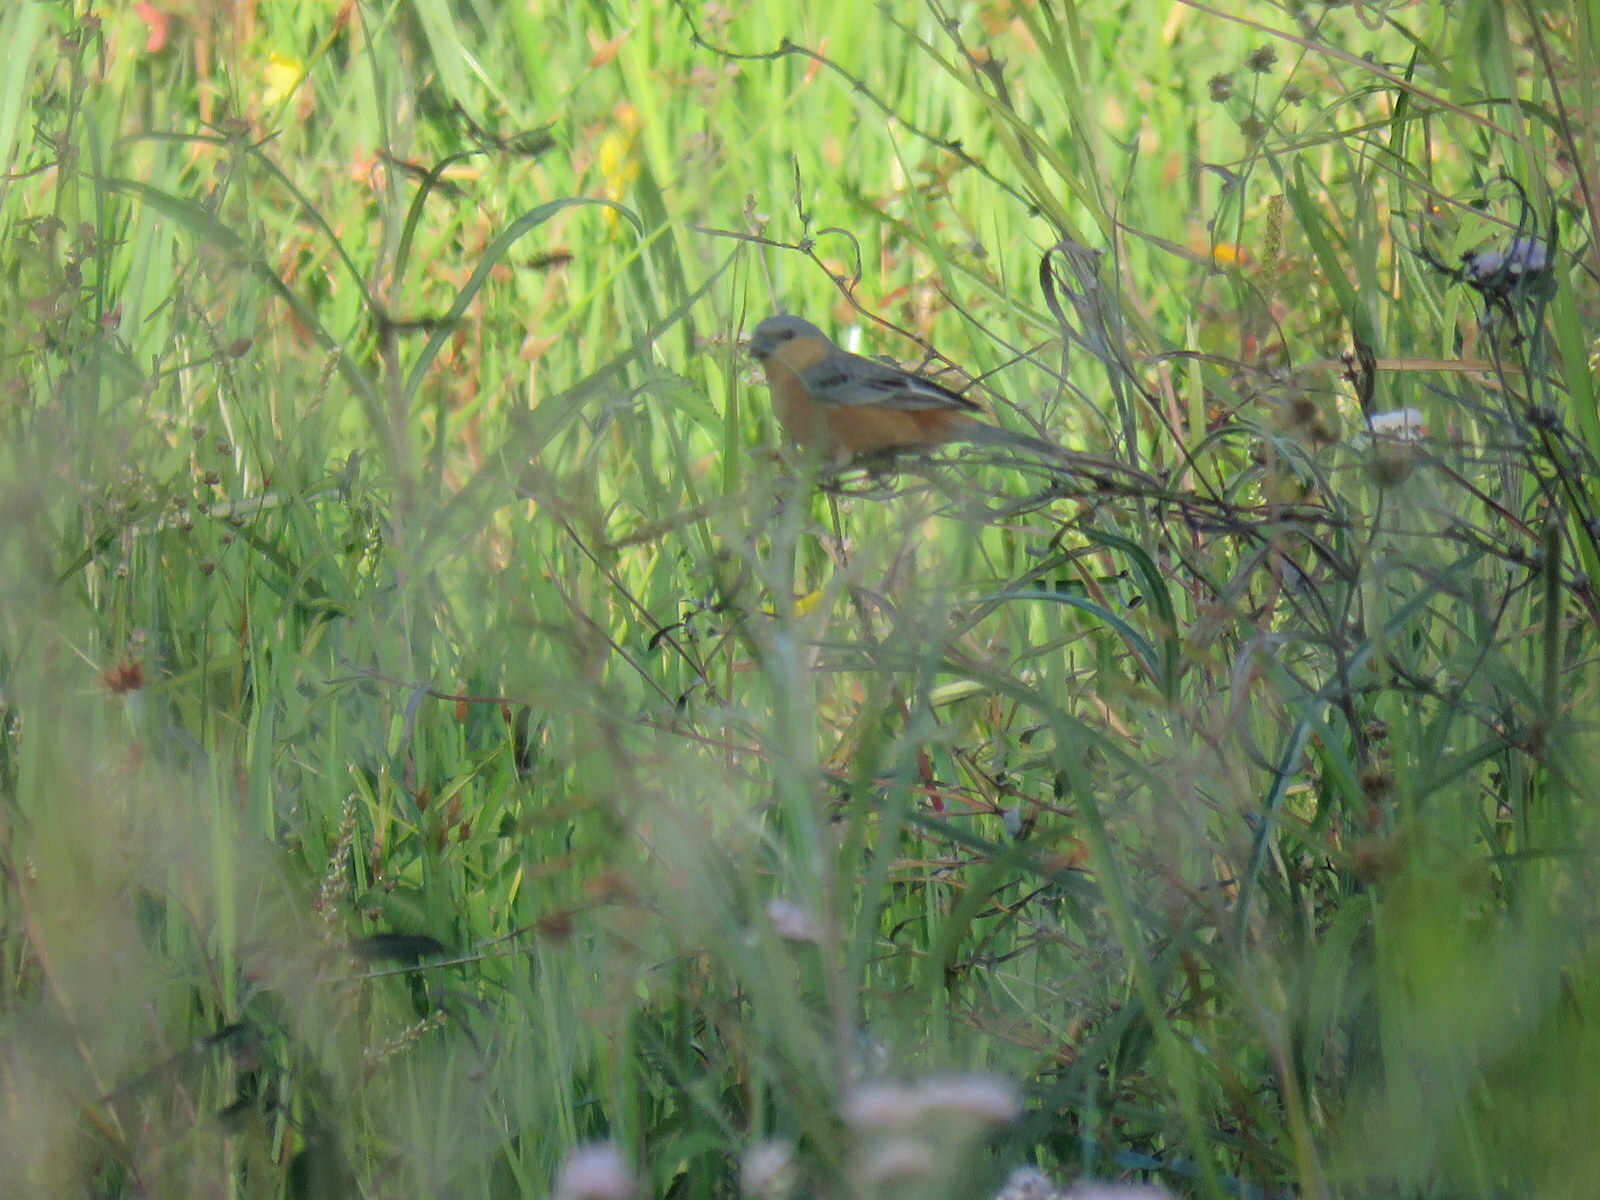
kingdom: Animalia
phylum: Chordata
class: Aves
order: Passeriformes
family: Thraupidae
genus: Sporophila
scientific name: Sporophila hypoxantha
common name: Tawny-bellied seedeater
